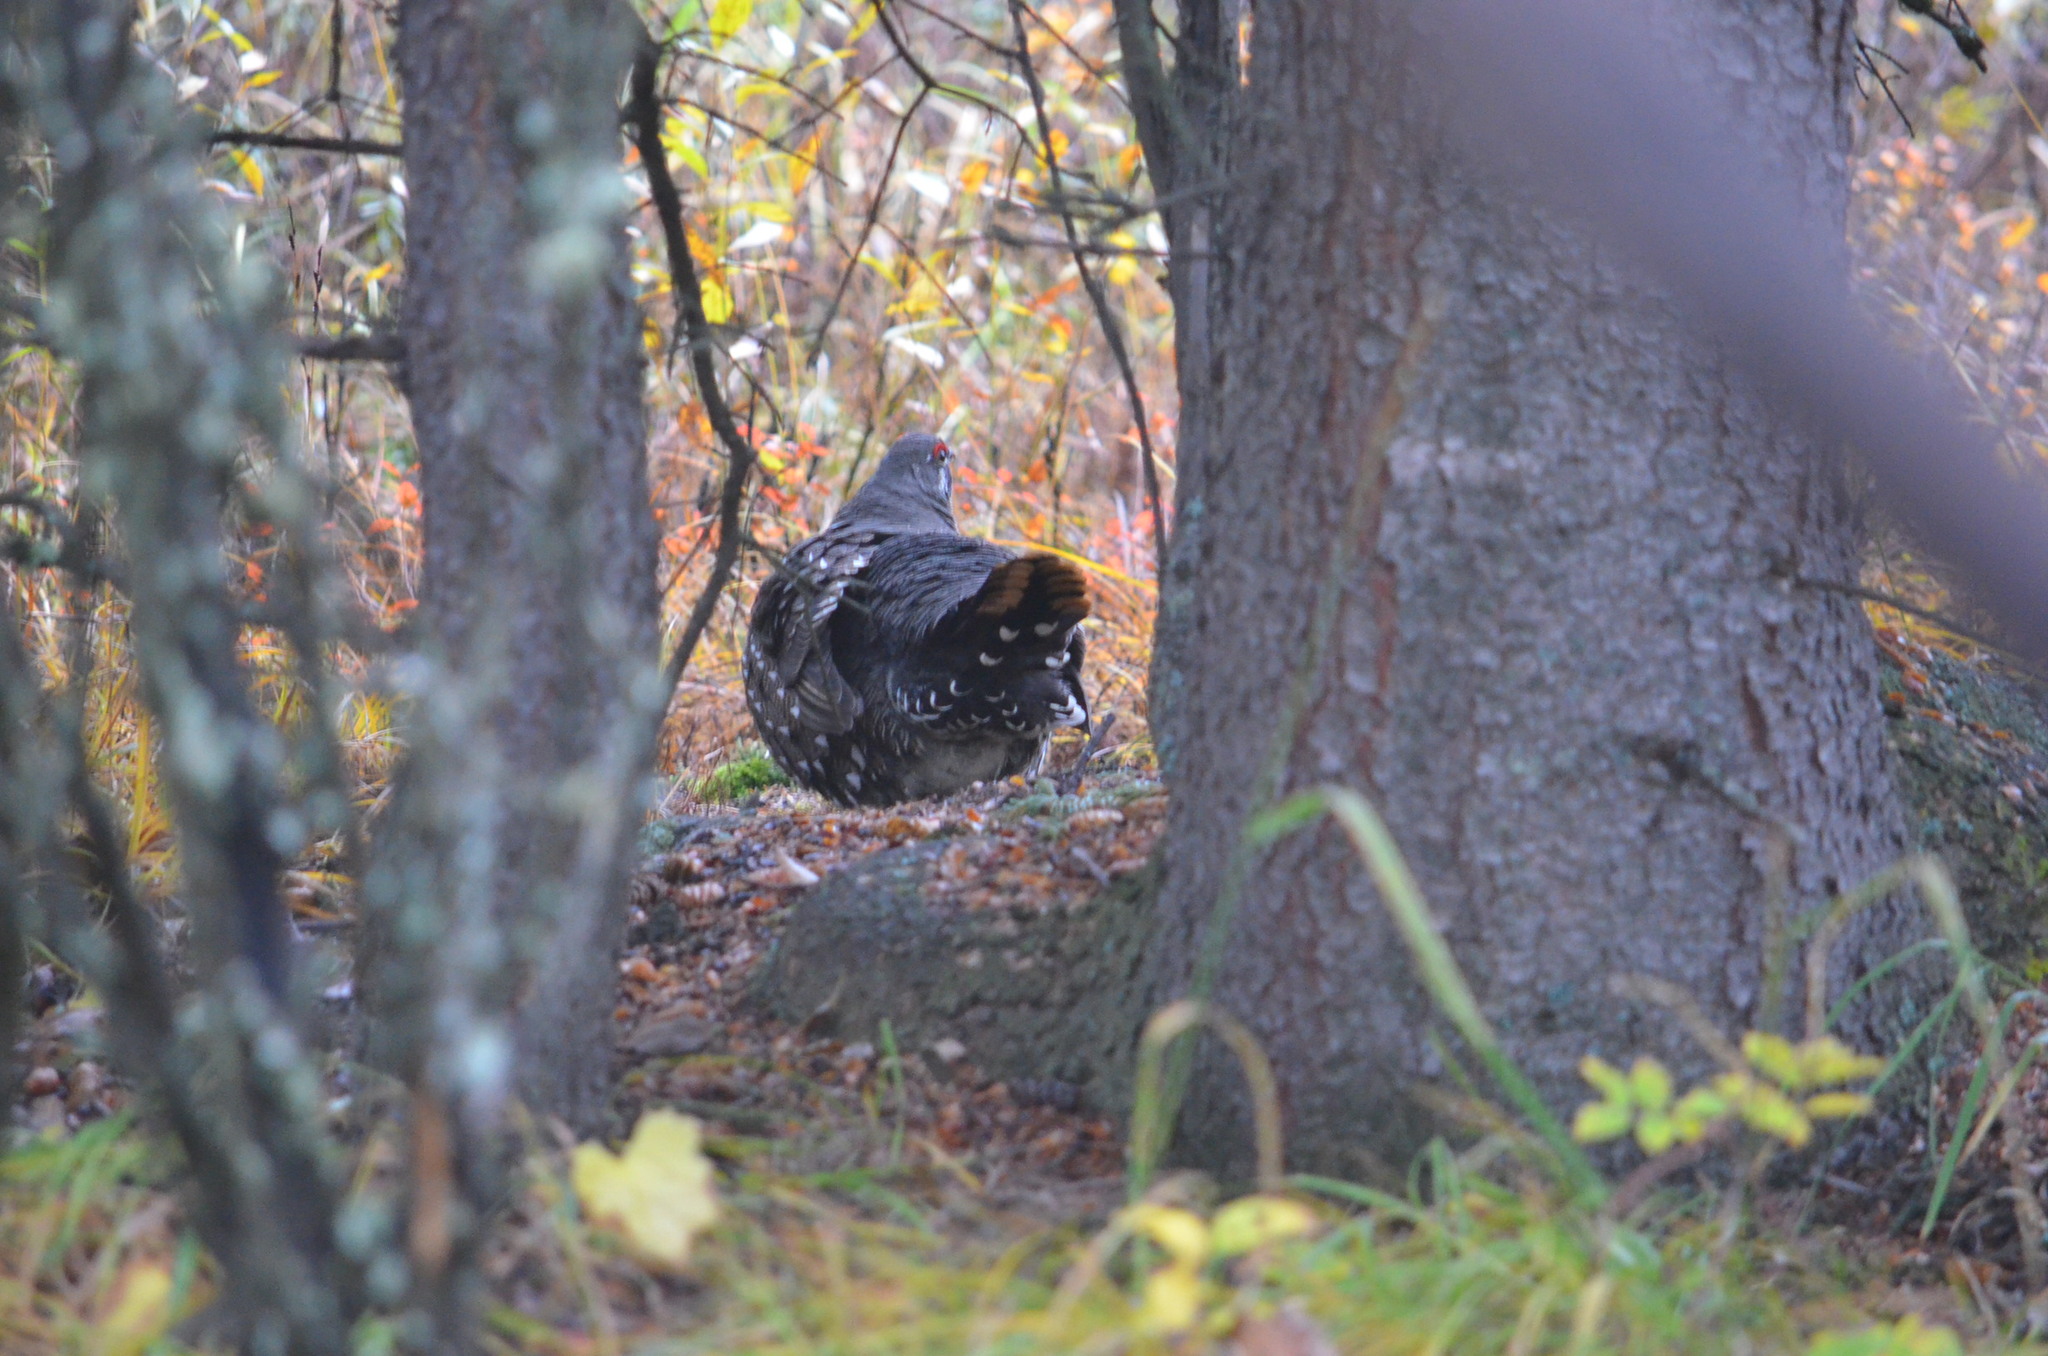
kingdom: Animalia
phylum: Chordata
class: Aves
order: Galliformes
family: Phasianidae
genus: Canachites
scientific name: Canachites canadensis
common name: Spruce grouse
